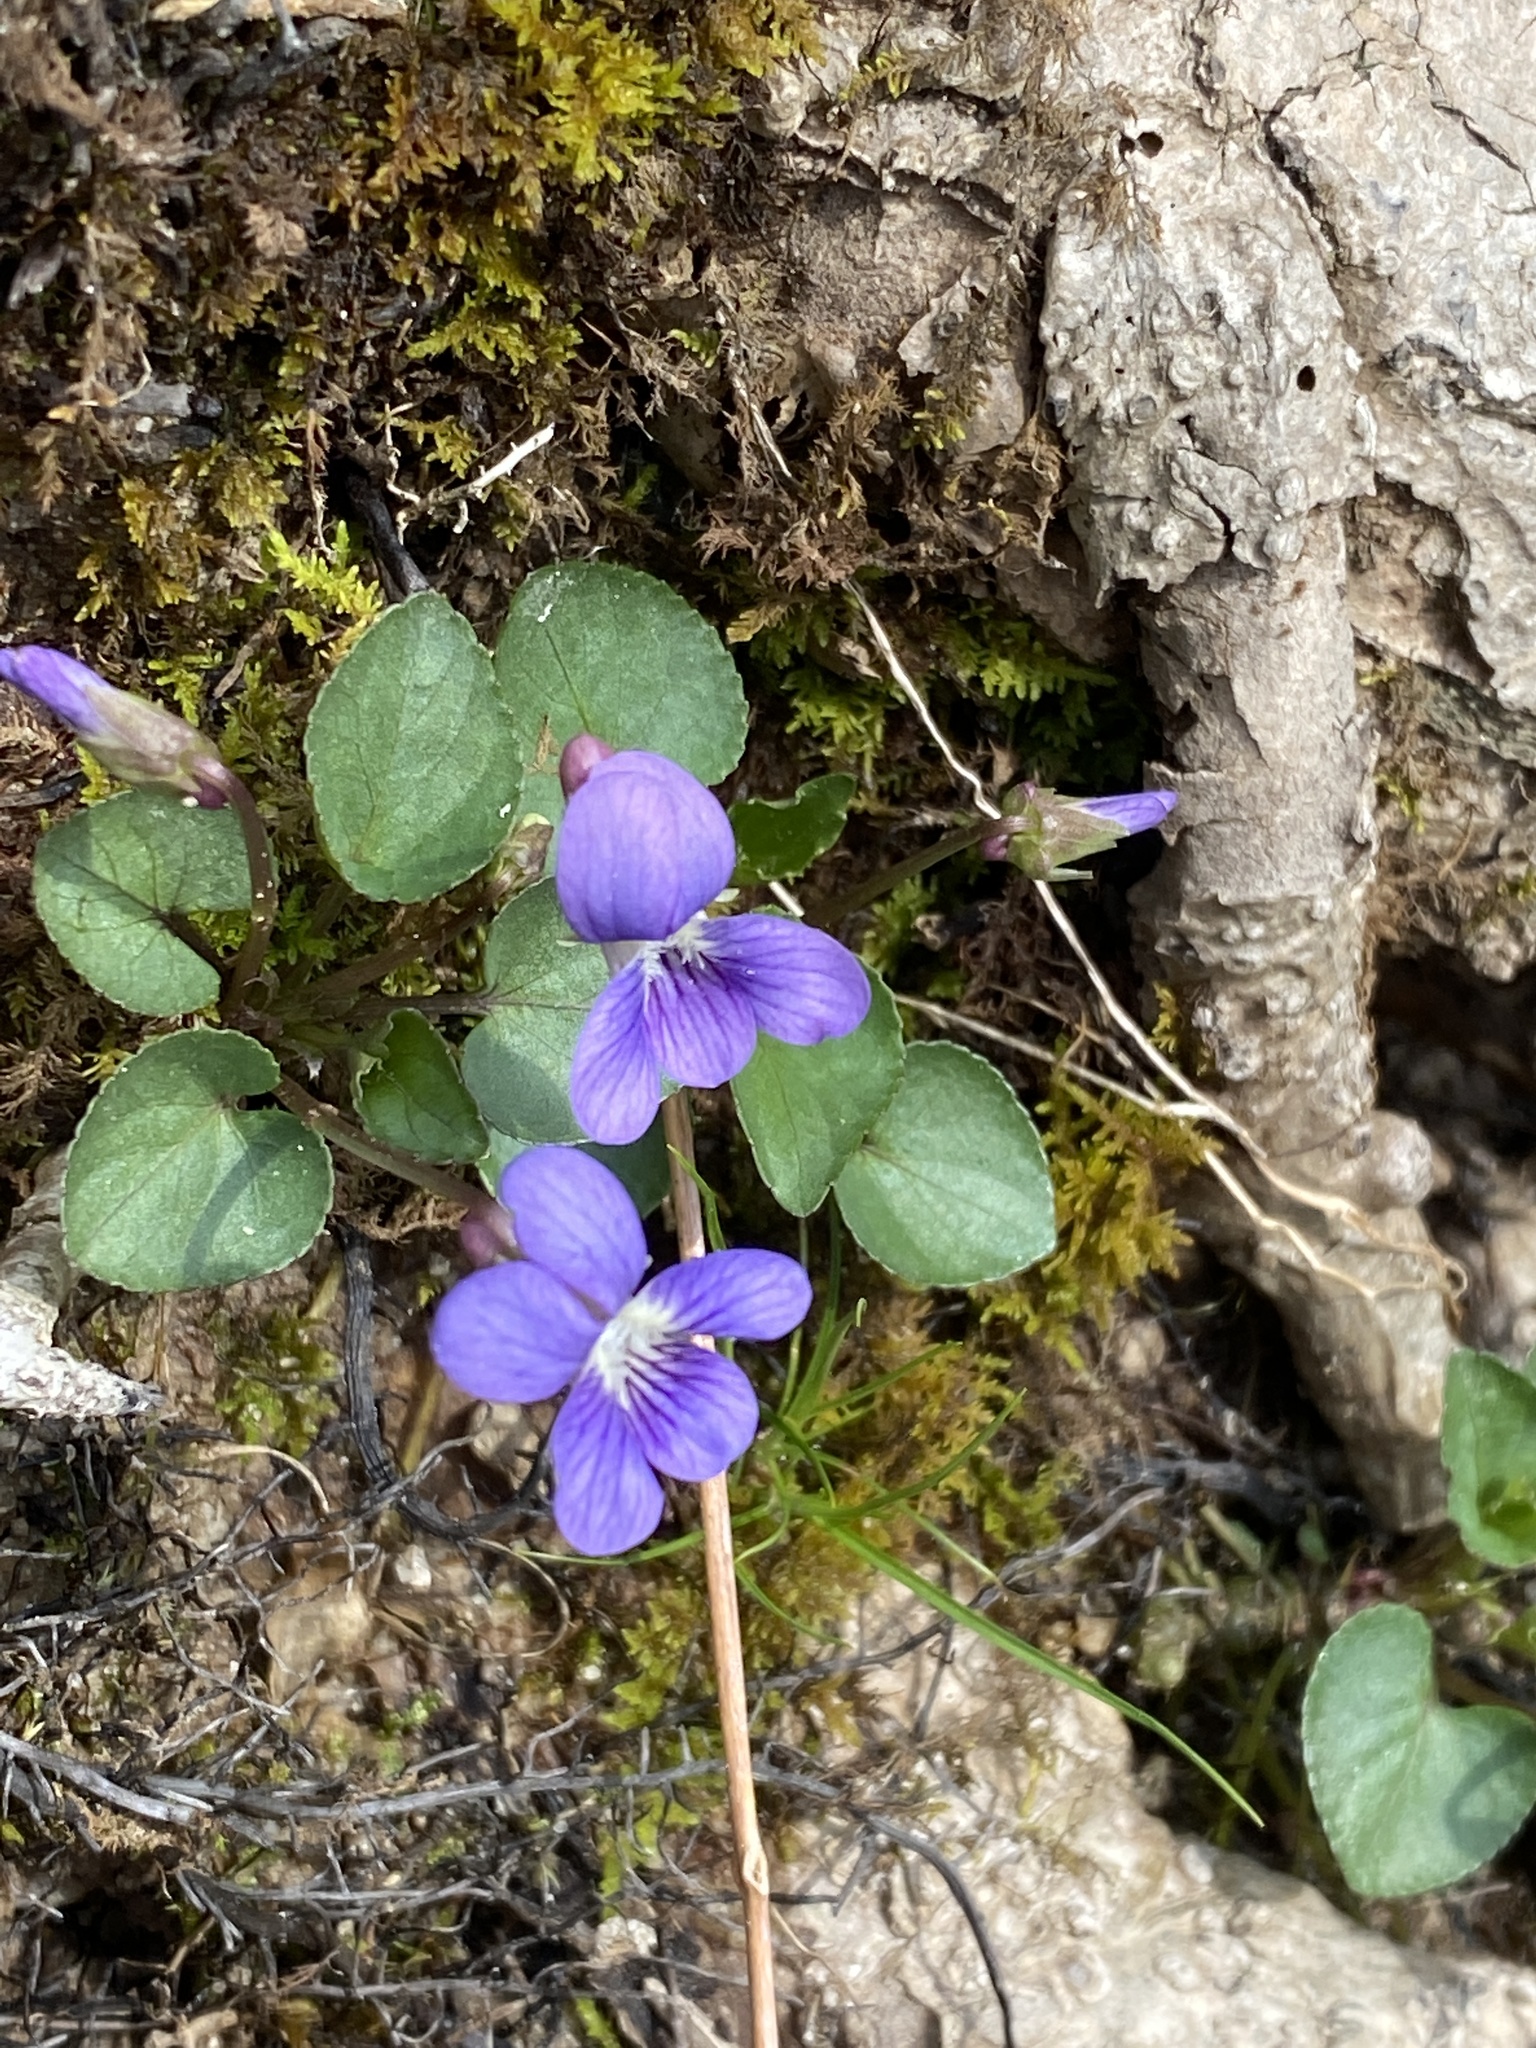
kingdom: Plantae
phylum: Tracheophyta
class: Magnoliopsida
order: Malpighiales
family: Violaceae
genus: Viola
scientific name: Viola sororia
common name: Dooryard violet
